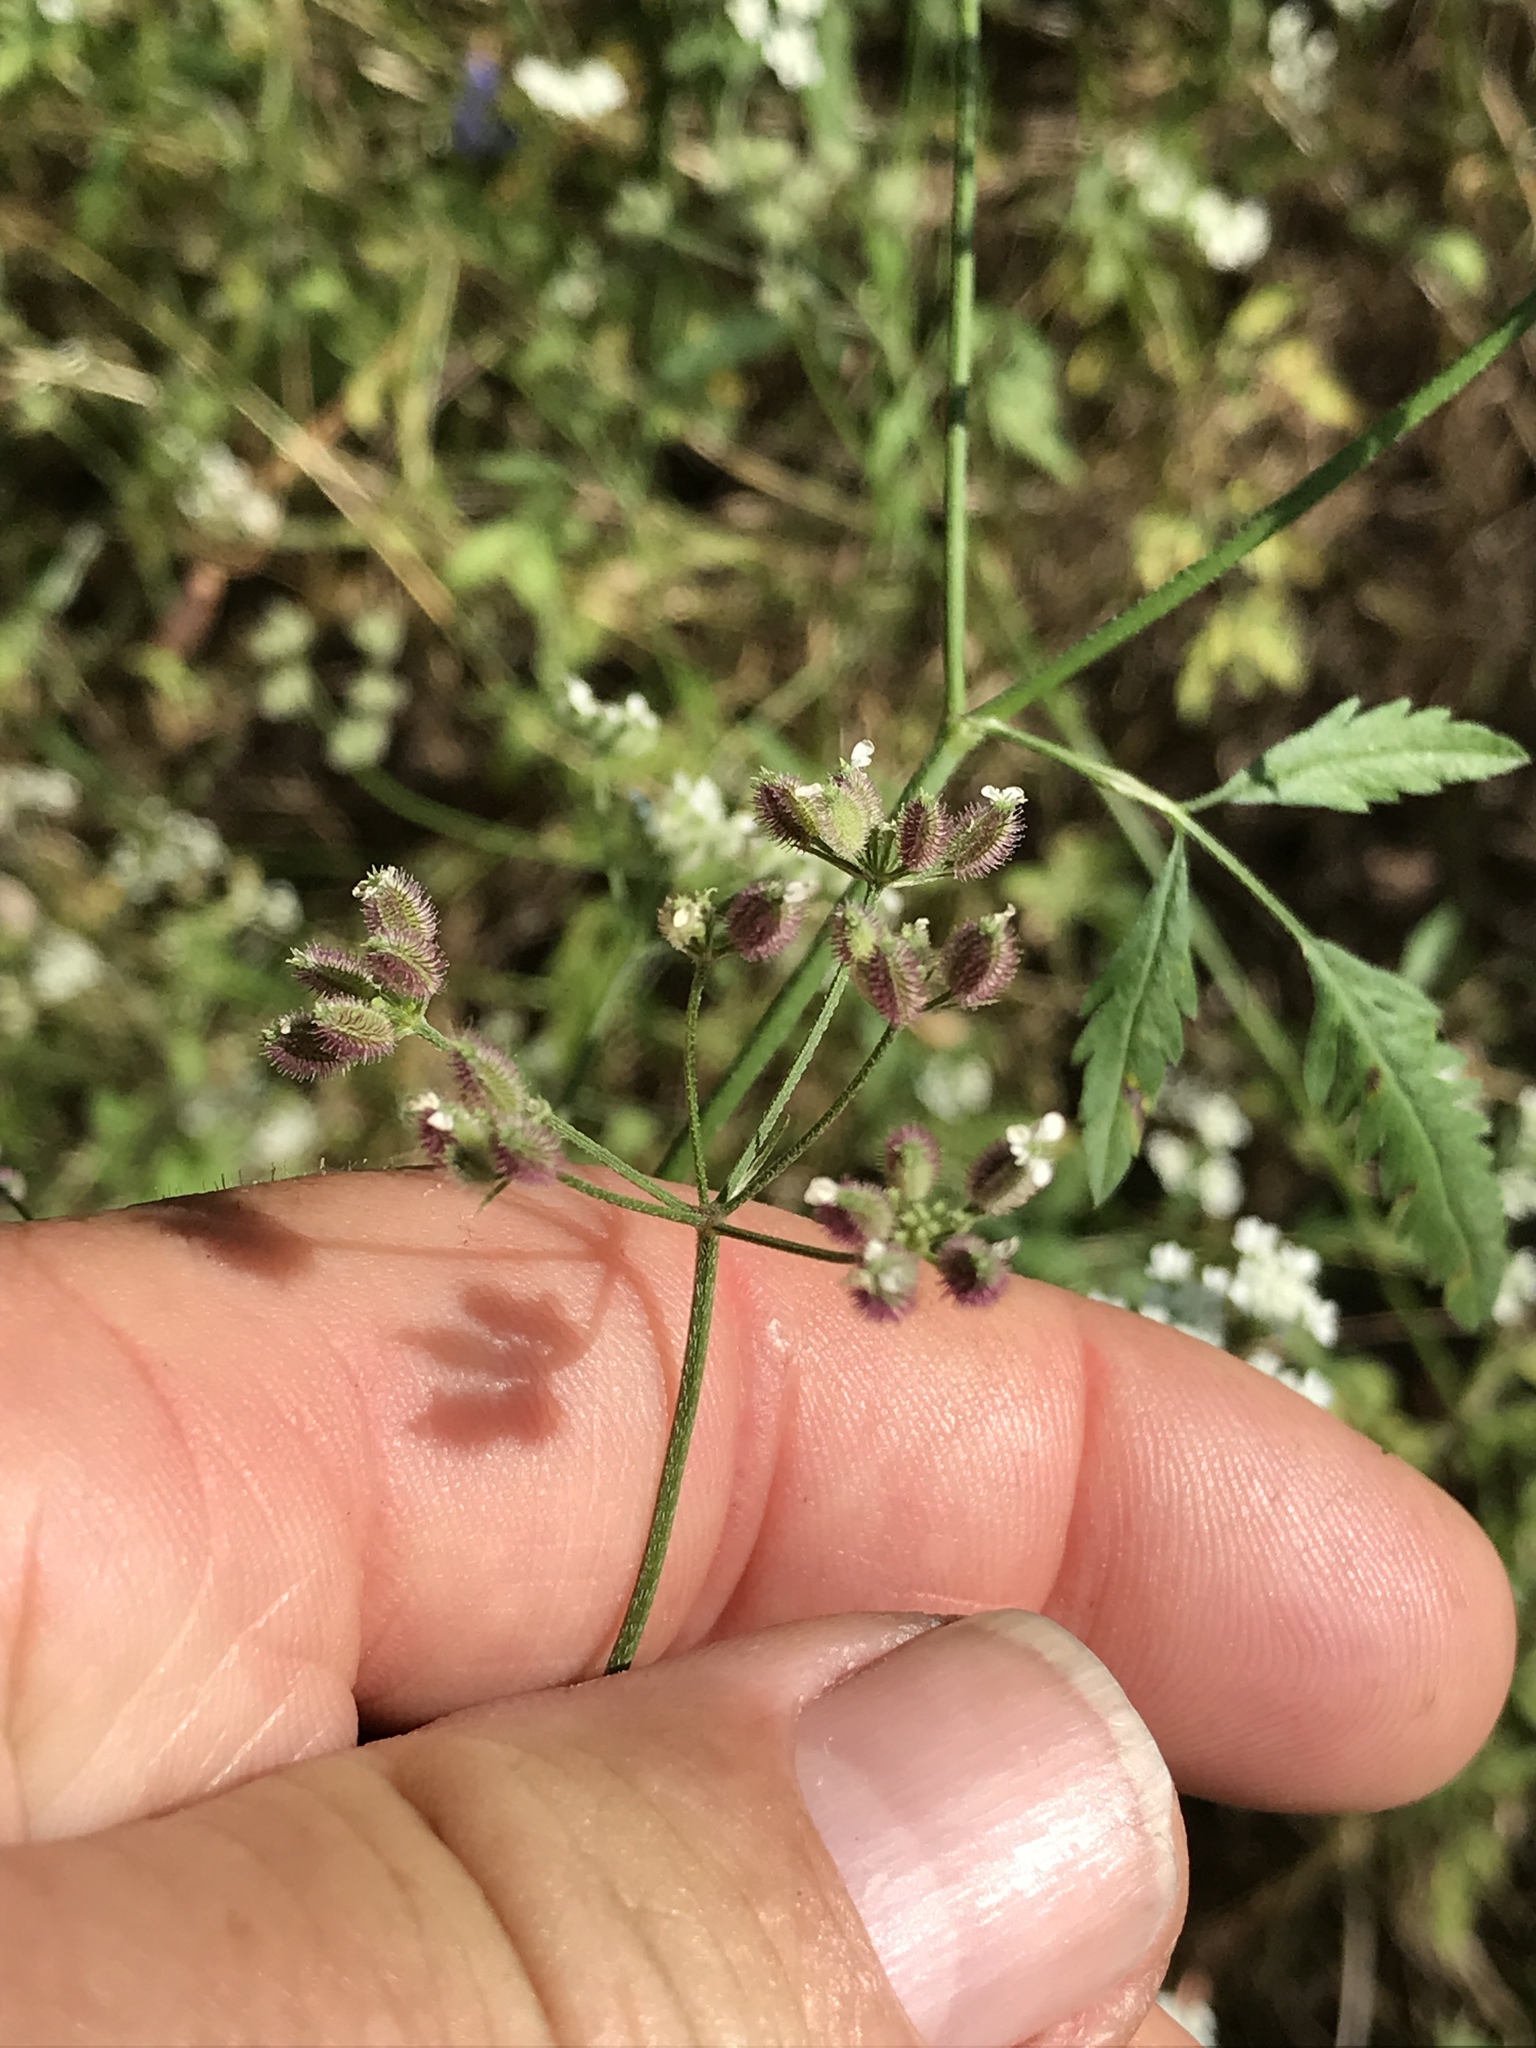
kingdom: Plantae
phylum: Tracheophyta
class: Magnoliopsida
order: Apiales
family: Apiaceae
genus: Torilis
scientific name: Torilis arvensis
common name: Spreading hedge-parsley
